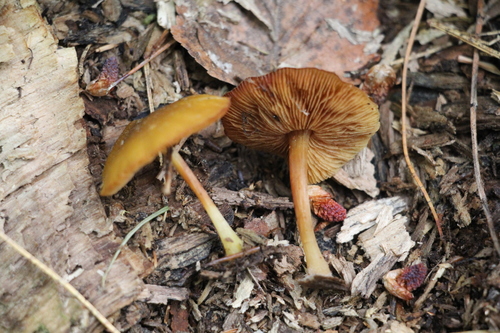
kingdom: Fungi
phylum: Basidiomycota
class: Agaricomycetes
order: Agaricales
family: Pluteaceae
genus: Pluteus
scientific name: Pluteus chrysophlebius
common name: Yellow deer mushroom
